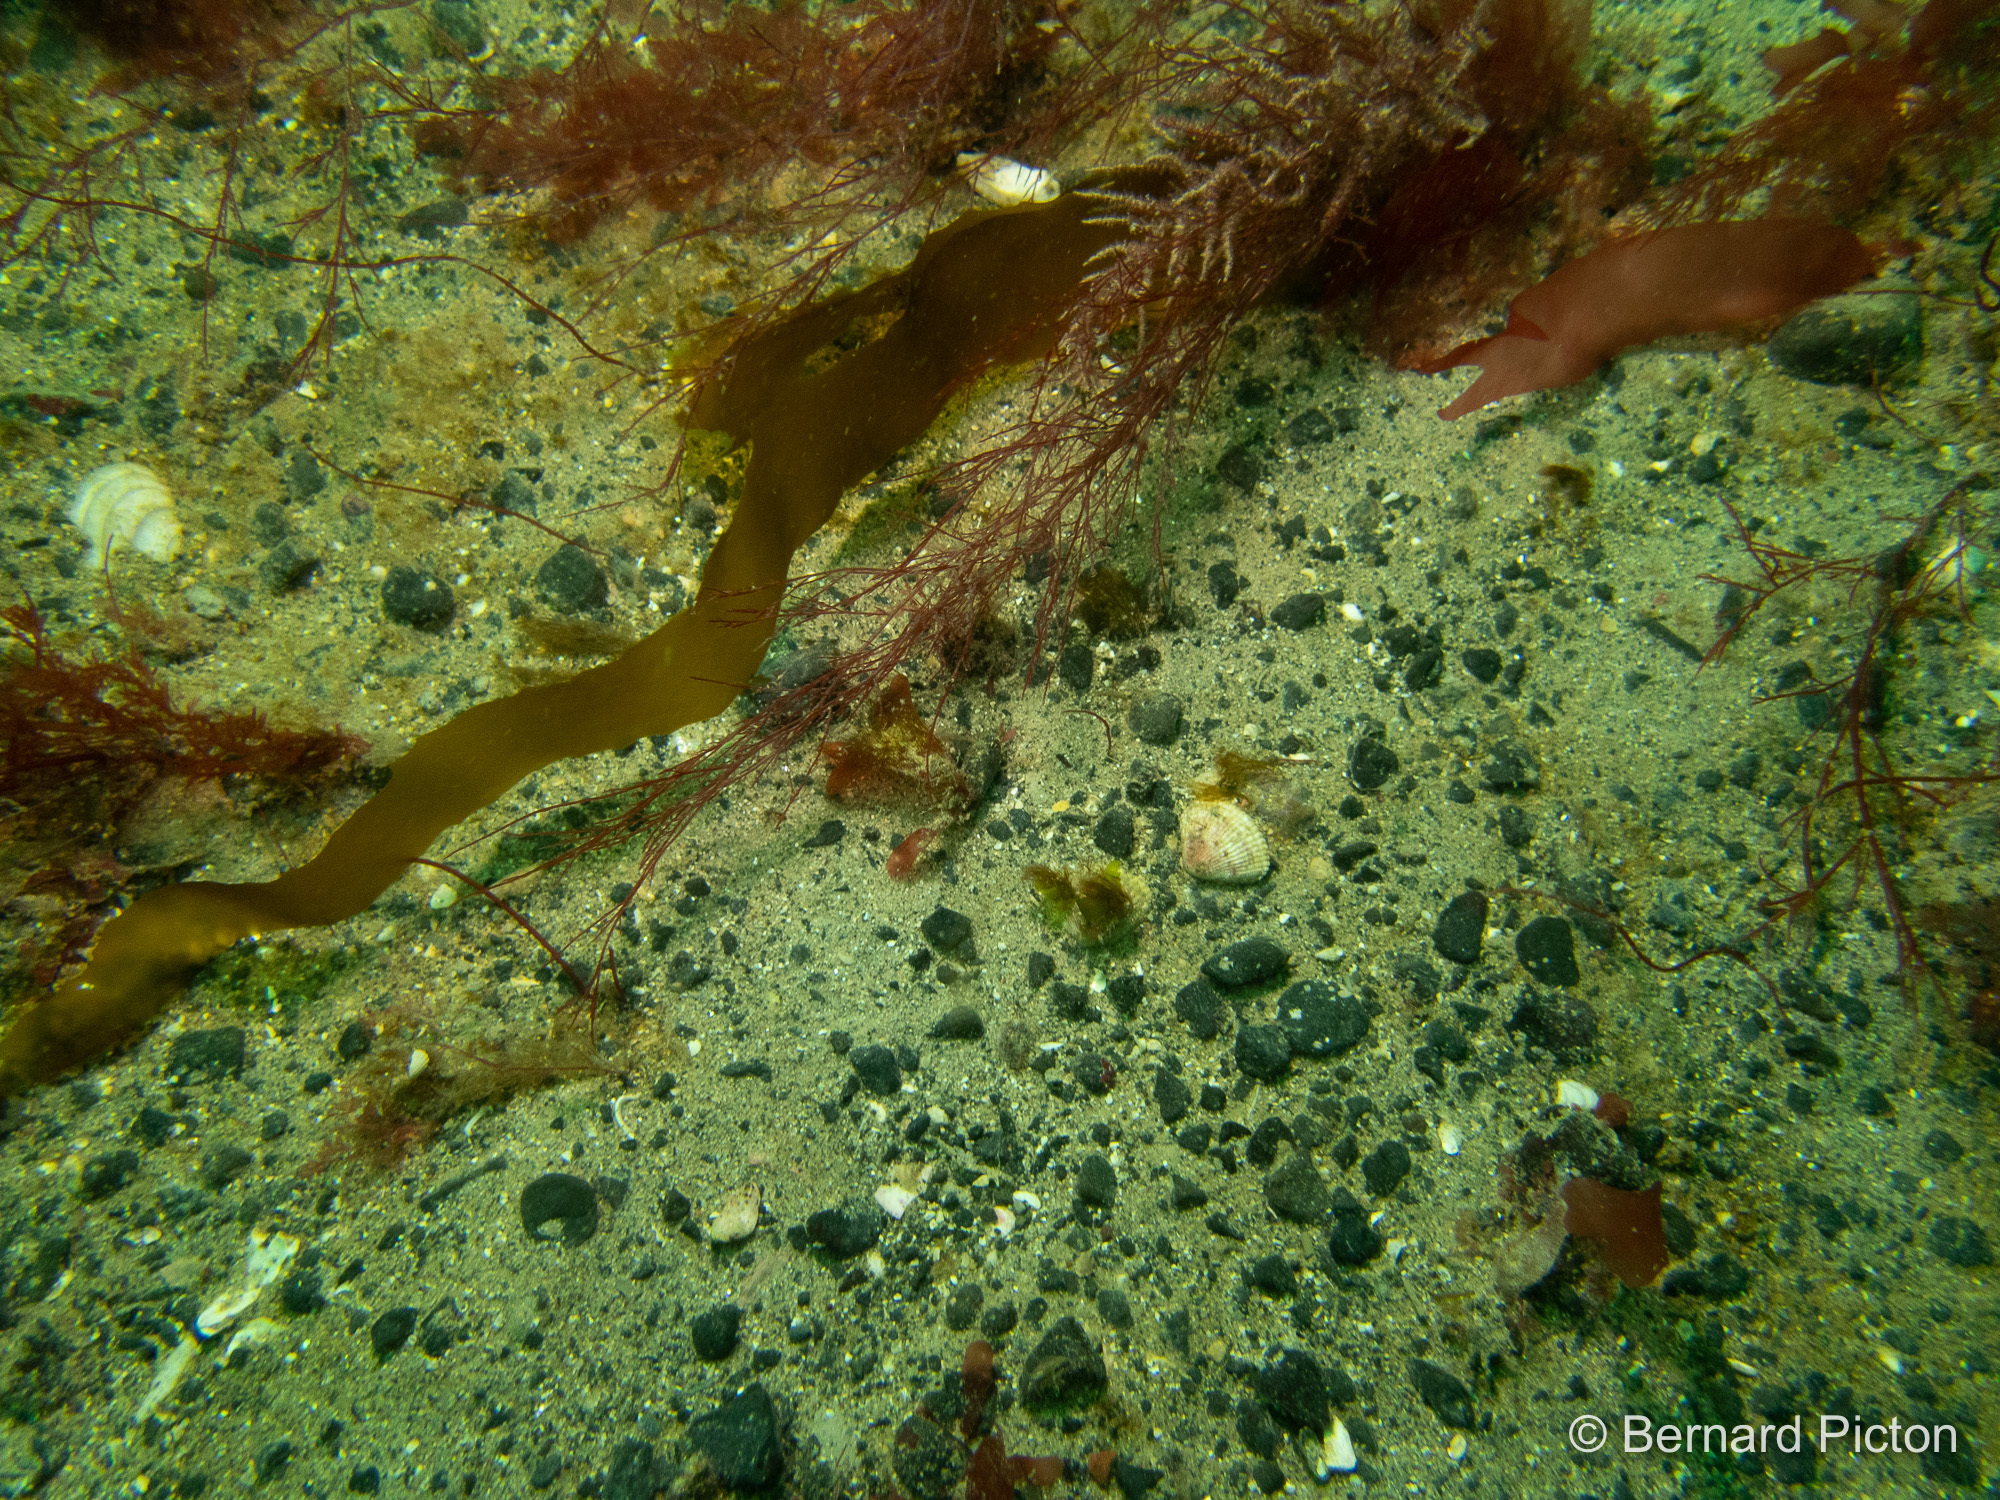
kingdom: Chromista
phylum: Ochrophyta
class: Phaeophyceae
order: Desmarestiales
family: Desmarestiaceae
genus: Desmarestia
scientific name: Desmarestia dudresnayi
